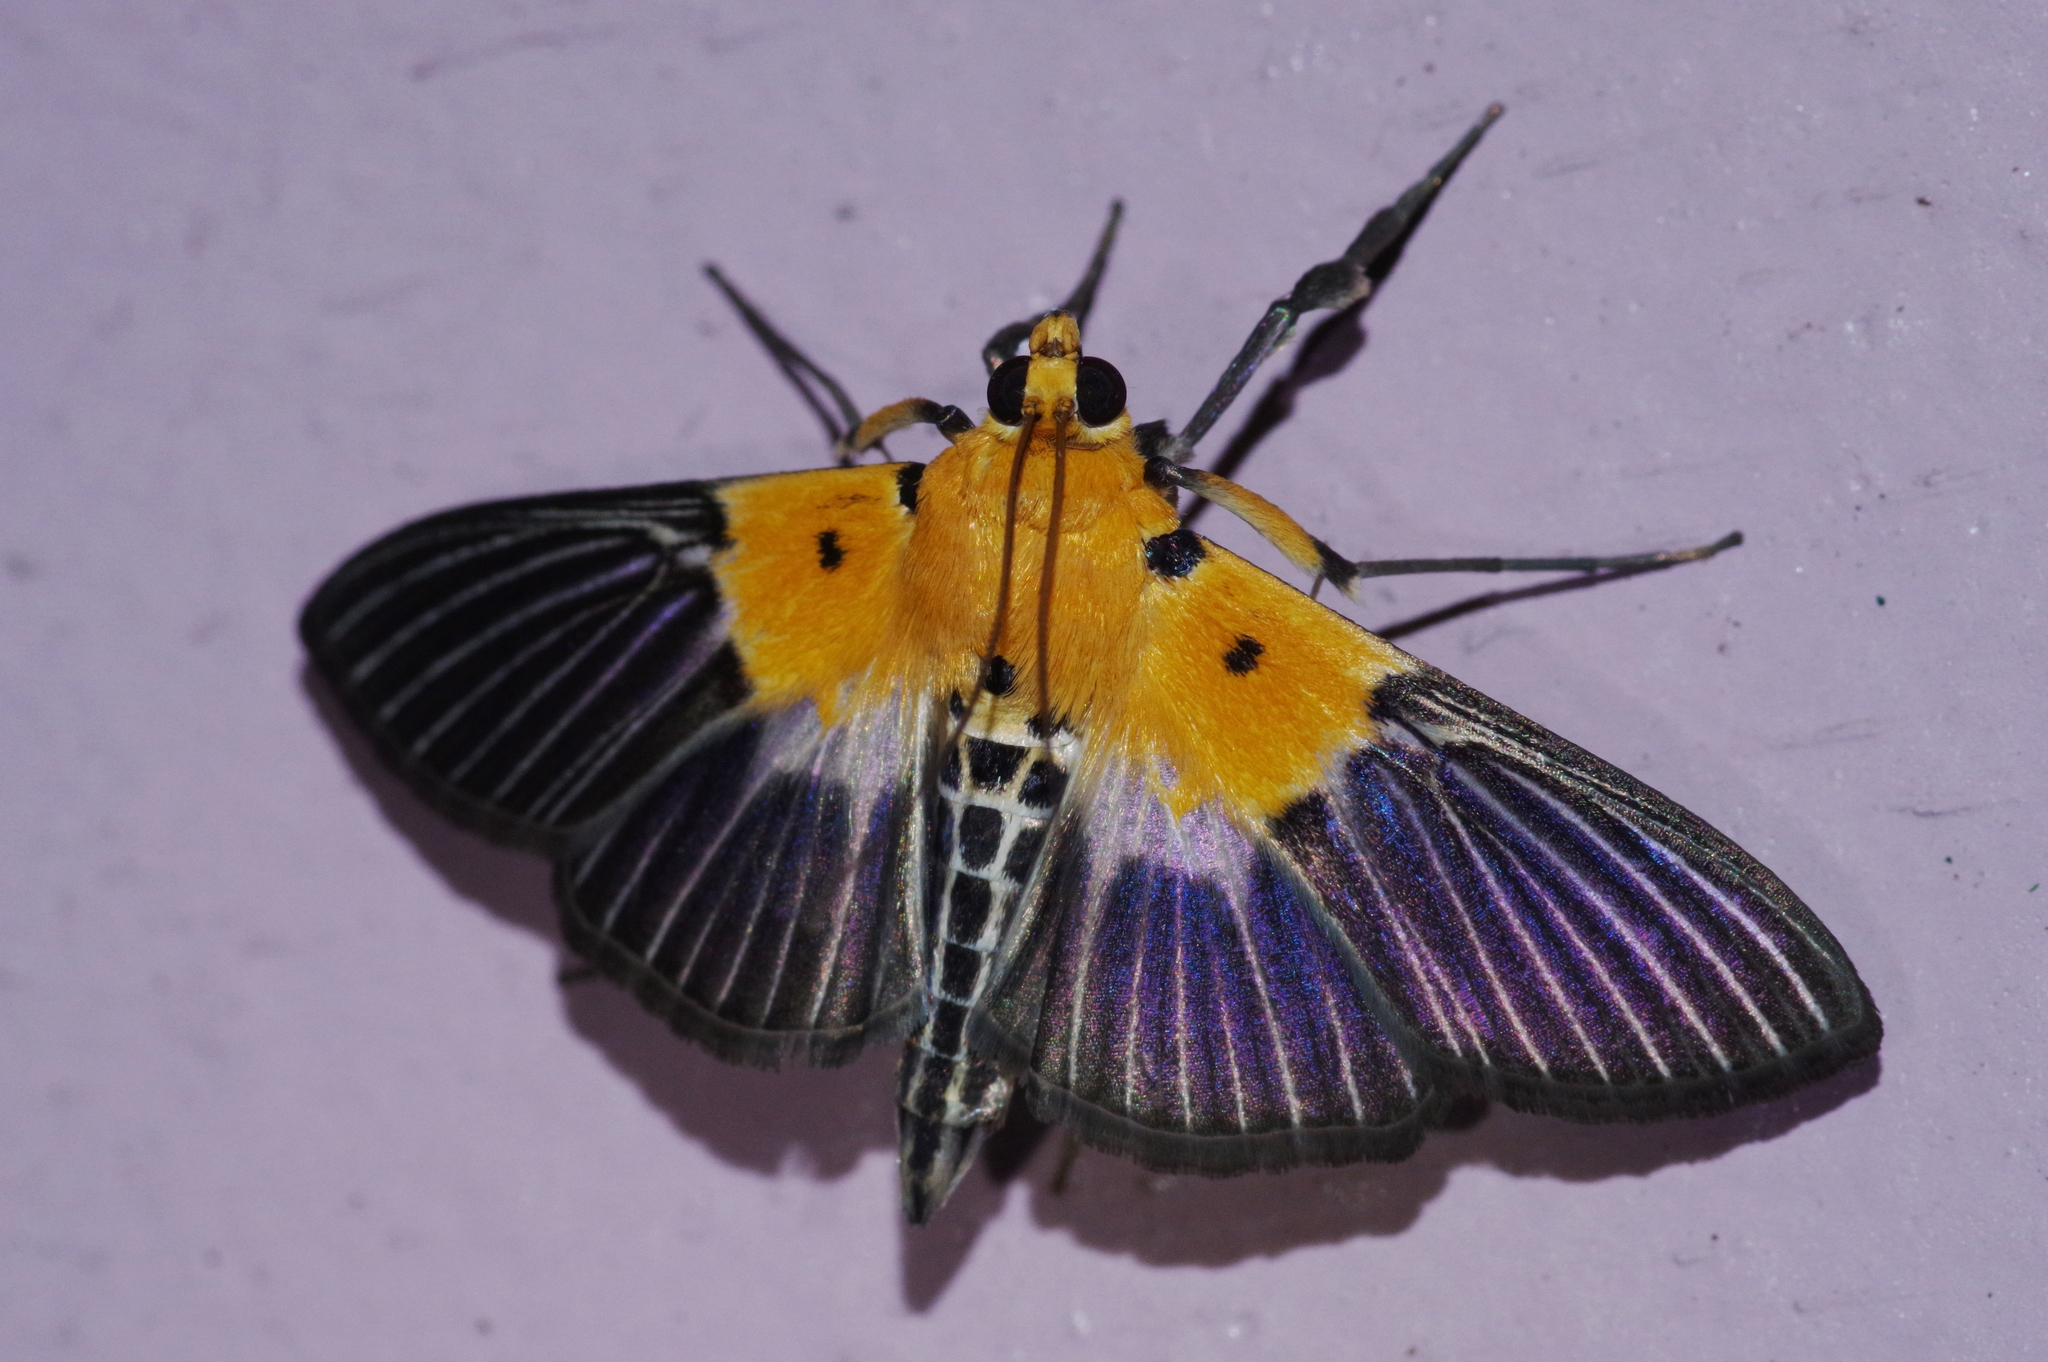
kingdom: Animalia
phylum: Arthropoda
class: Insecta
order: Lepidoptera
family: Crambidae
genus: Nevrina
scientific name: Nevrina procopia
